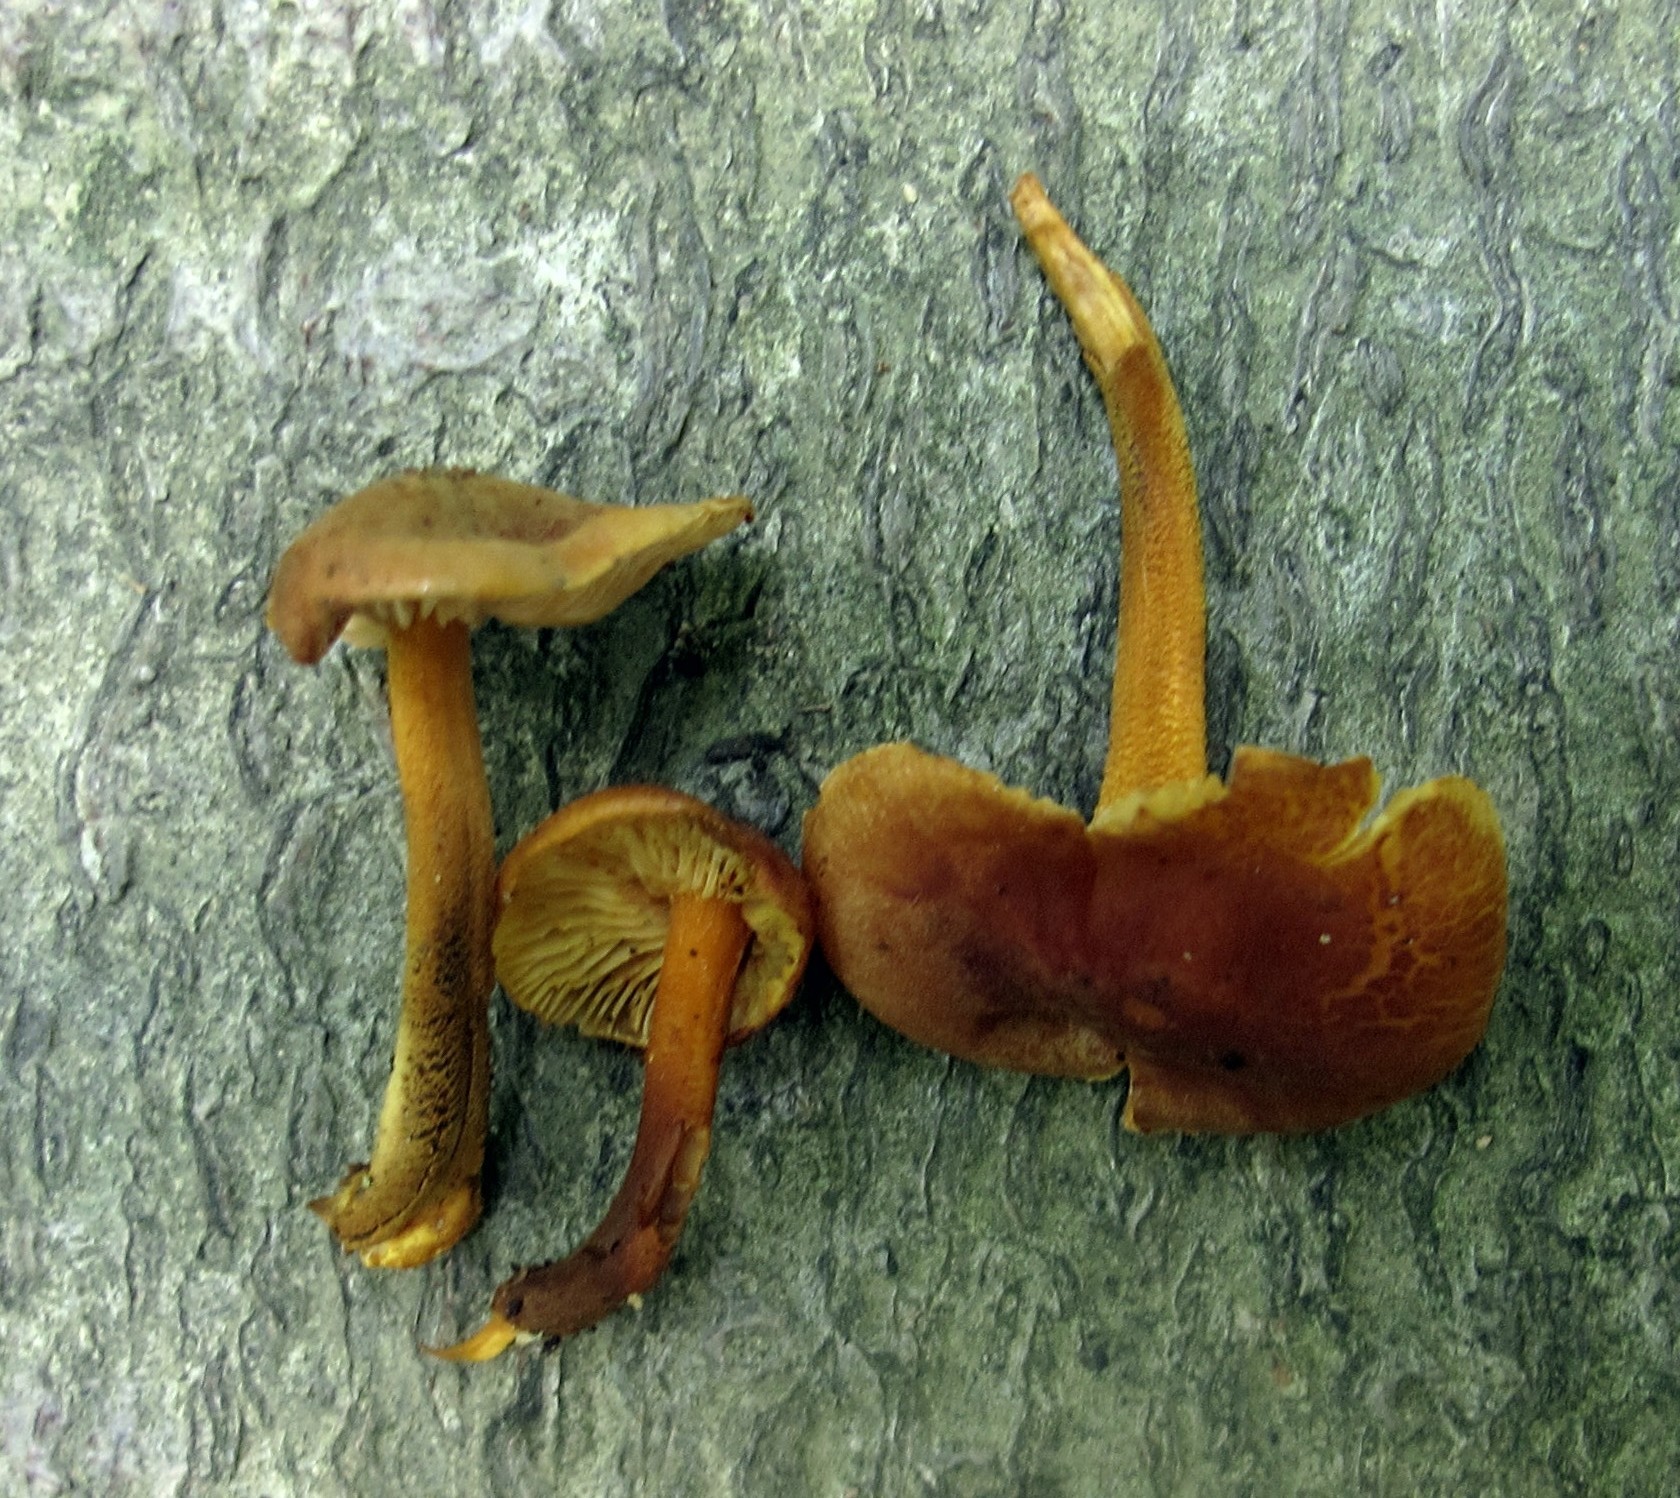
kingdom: Fungi
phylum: Basidiomycota
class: Agaricomycetes
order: Agaricales
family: Mycenaceae
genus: Xeromphalina
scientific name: Xeromphalina tenuipes
